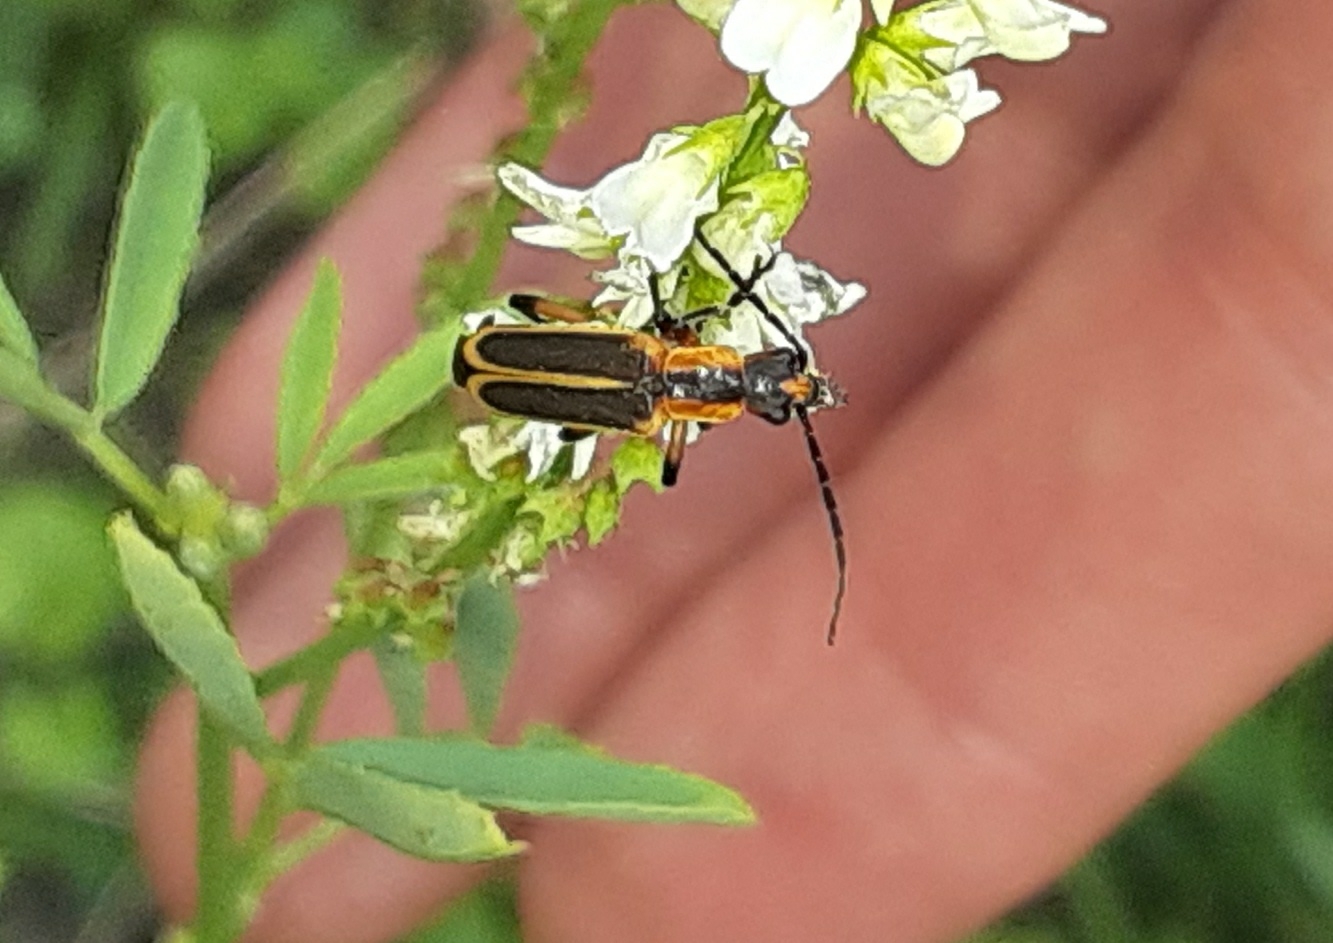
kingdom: Animalia
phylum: Arthropoda
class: Insecta
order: Coleoptera
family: Cantharidae
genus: Chauliognathus
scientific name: Chauliognathus marginatus
